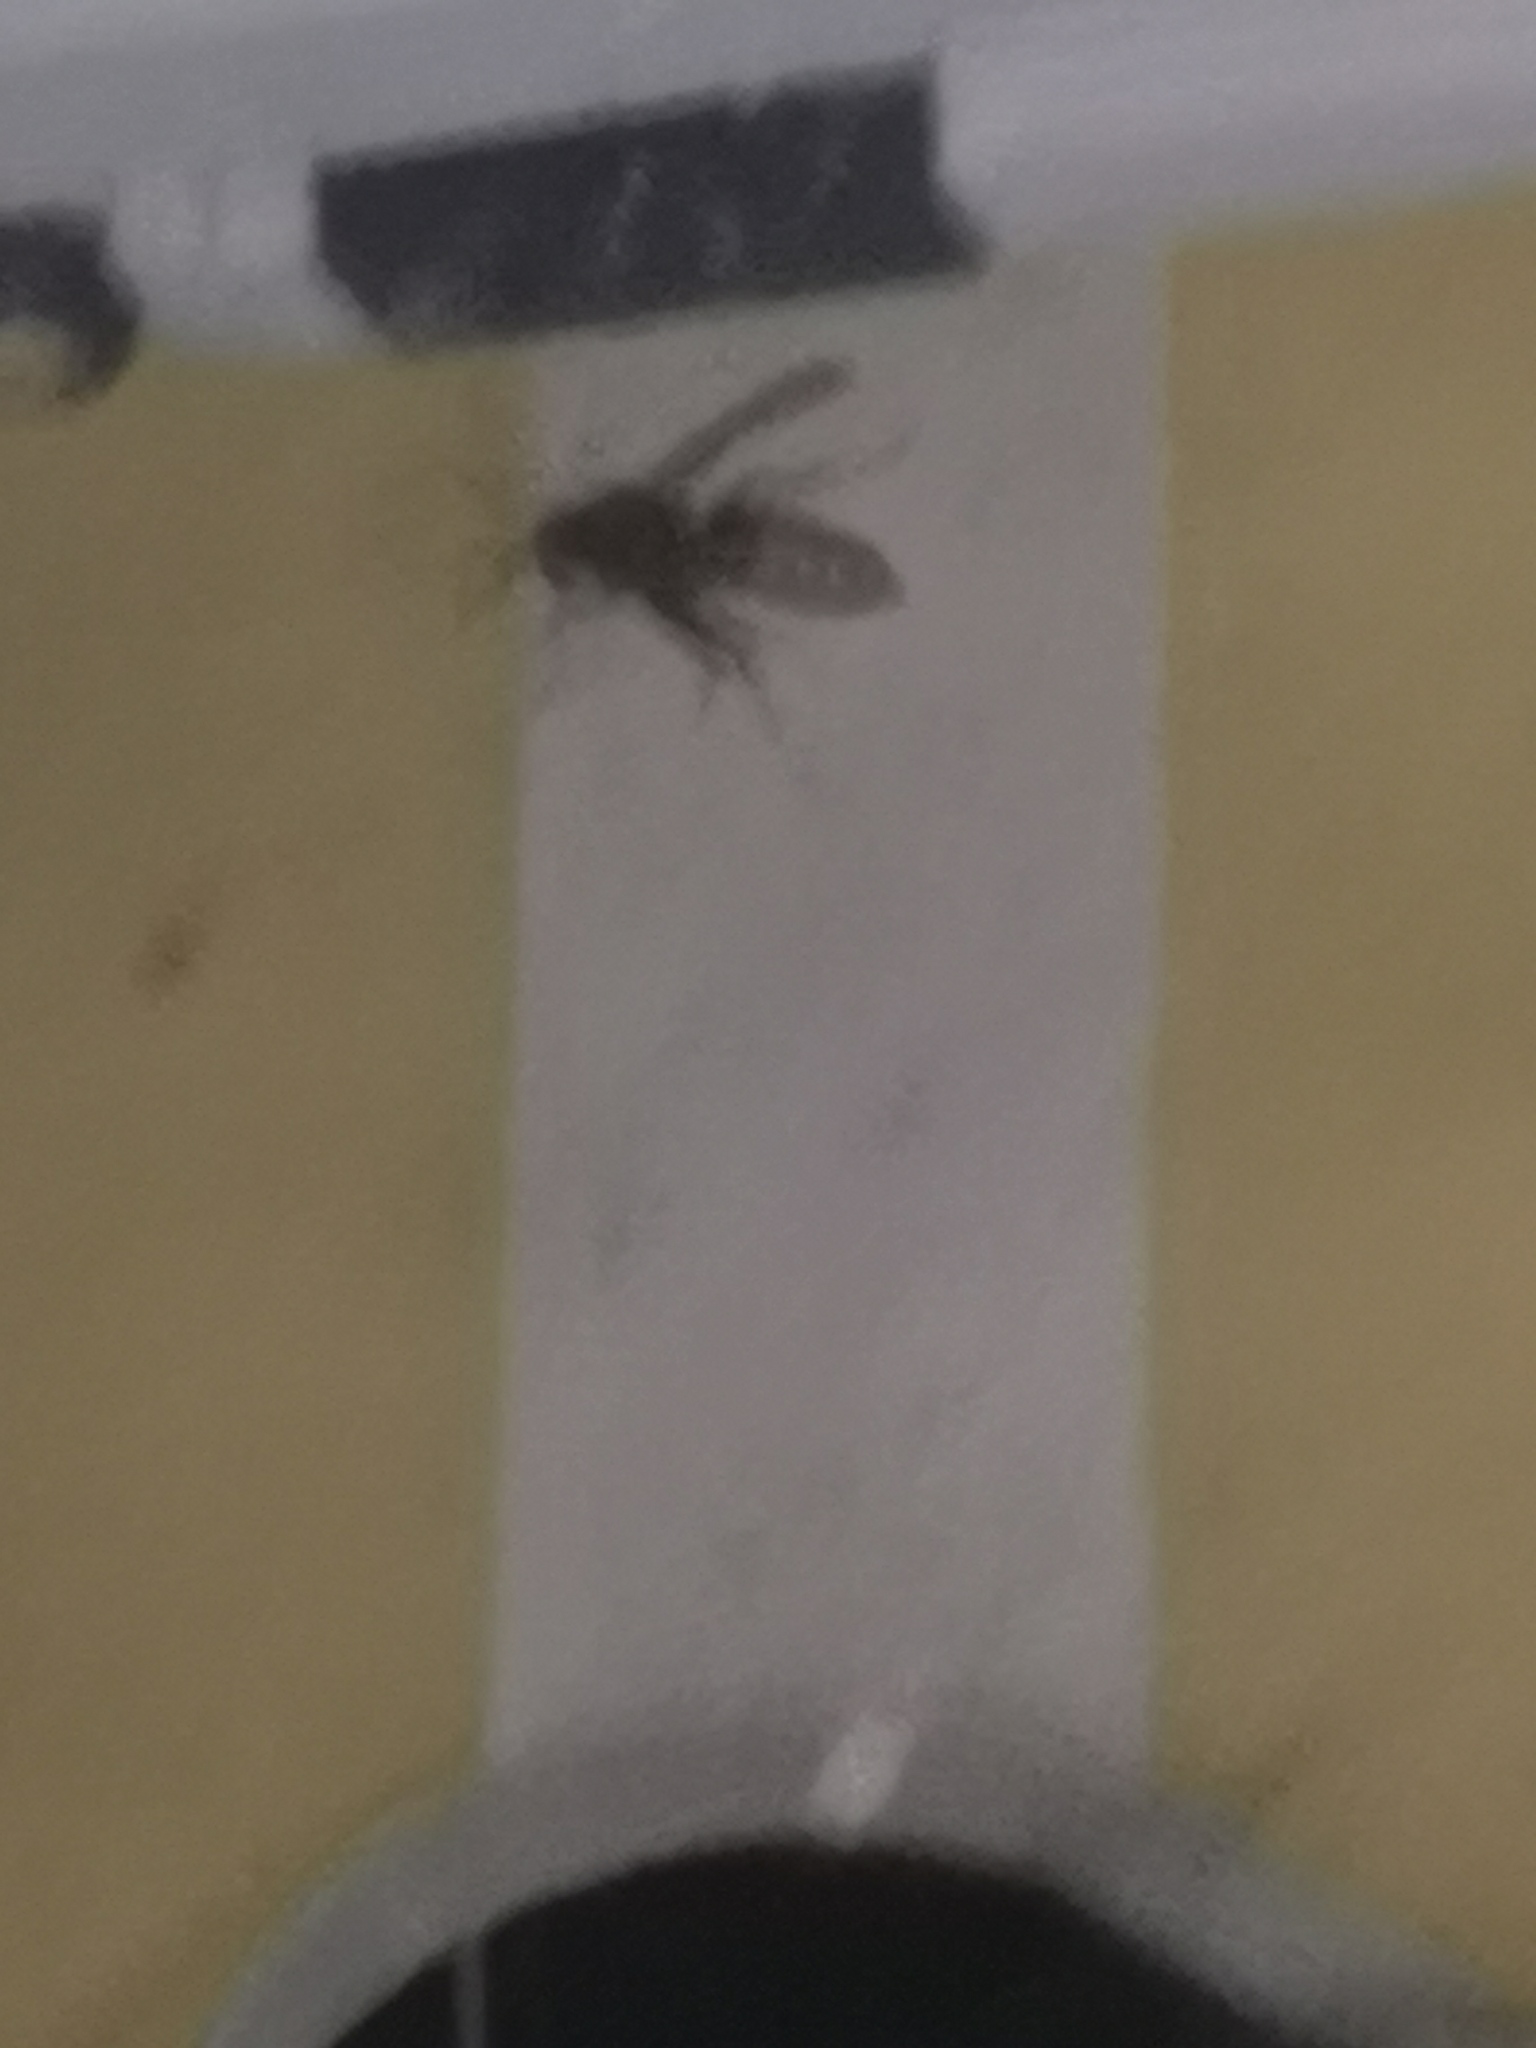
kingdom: Animalia
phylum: Arthropoda
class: Insecta
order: Hymenoptera
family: Vespidae
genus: Vespa
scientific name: Vespa crabro
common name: Hornet
